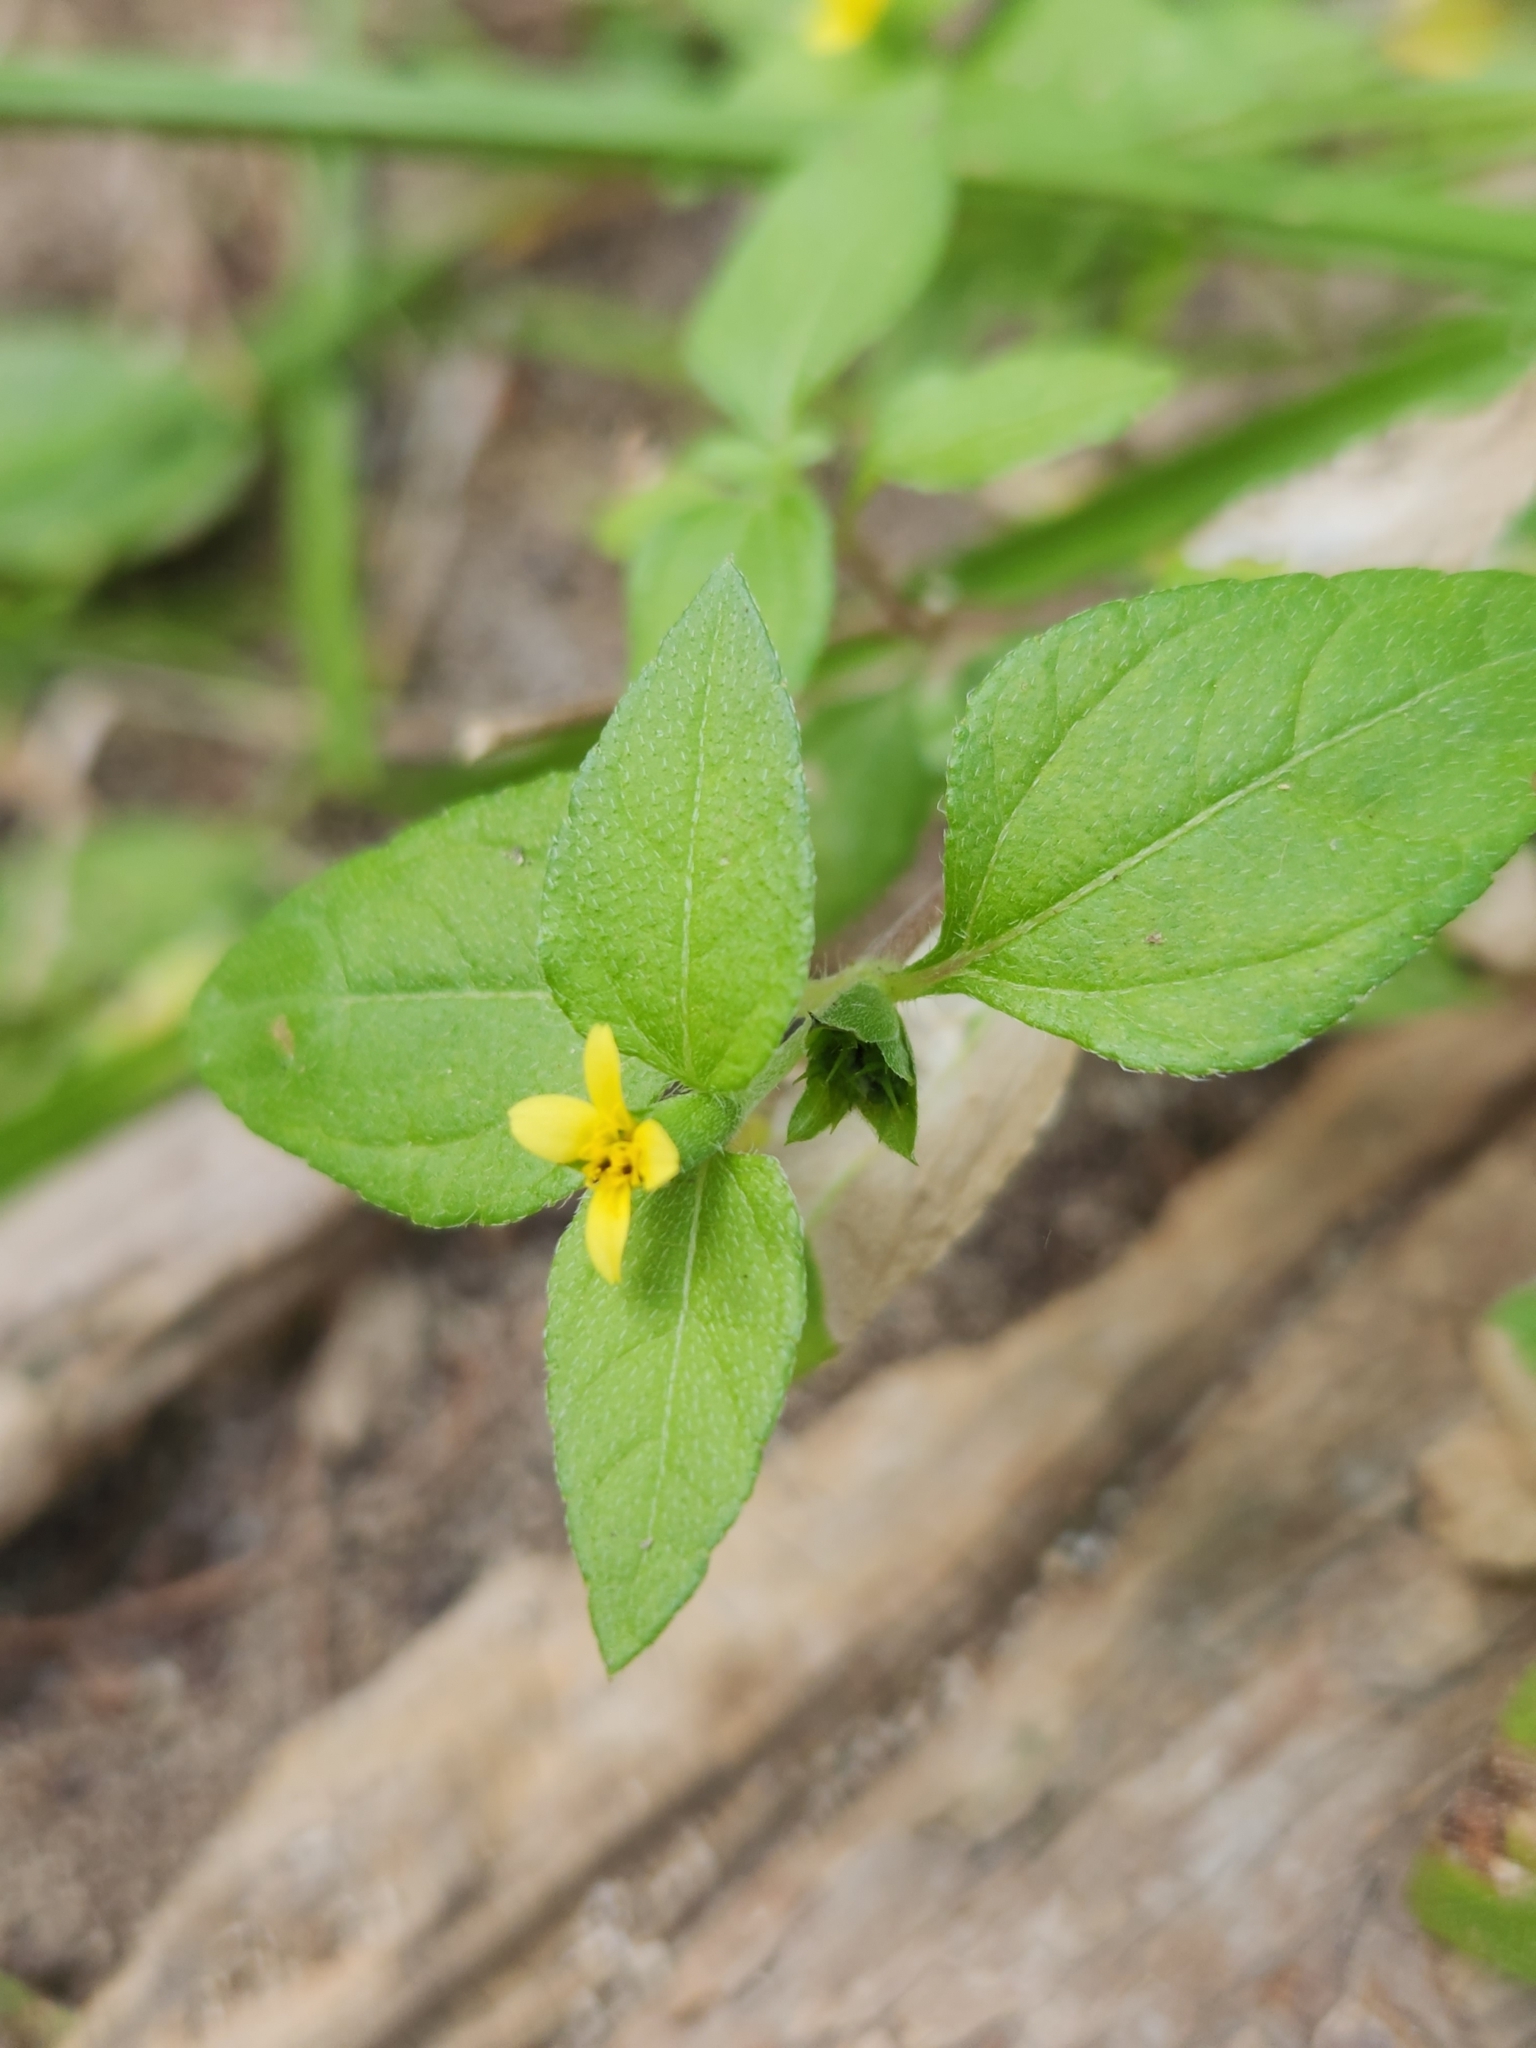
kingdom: Plantae
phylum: Tracheophyta
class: Magnoliopsida
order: Asterales
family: Asteraceae
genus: Calyptocarpus
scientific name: Calyptocarpus vialis
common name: Straggler daisy
